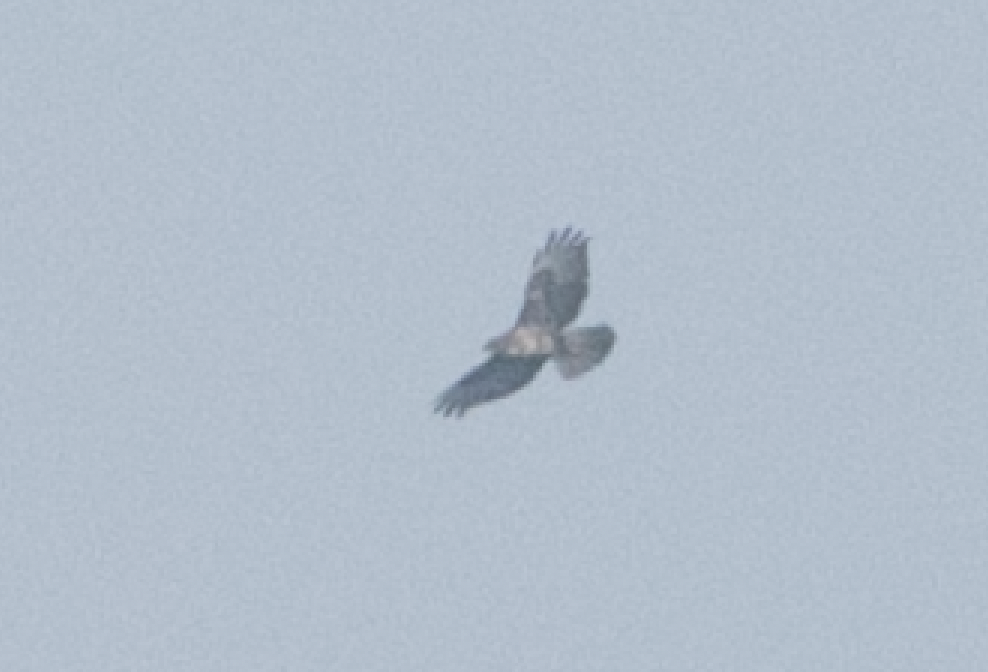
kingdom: Animalia
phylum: Chordata
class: Aves
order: Accipitriformes
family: Accipitridae
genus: Buteo
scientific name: Buteo buteo
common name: Common buzzard
